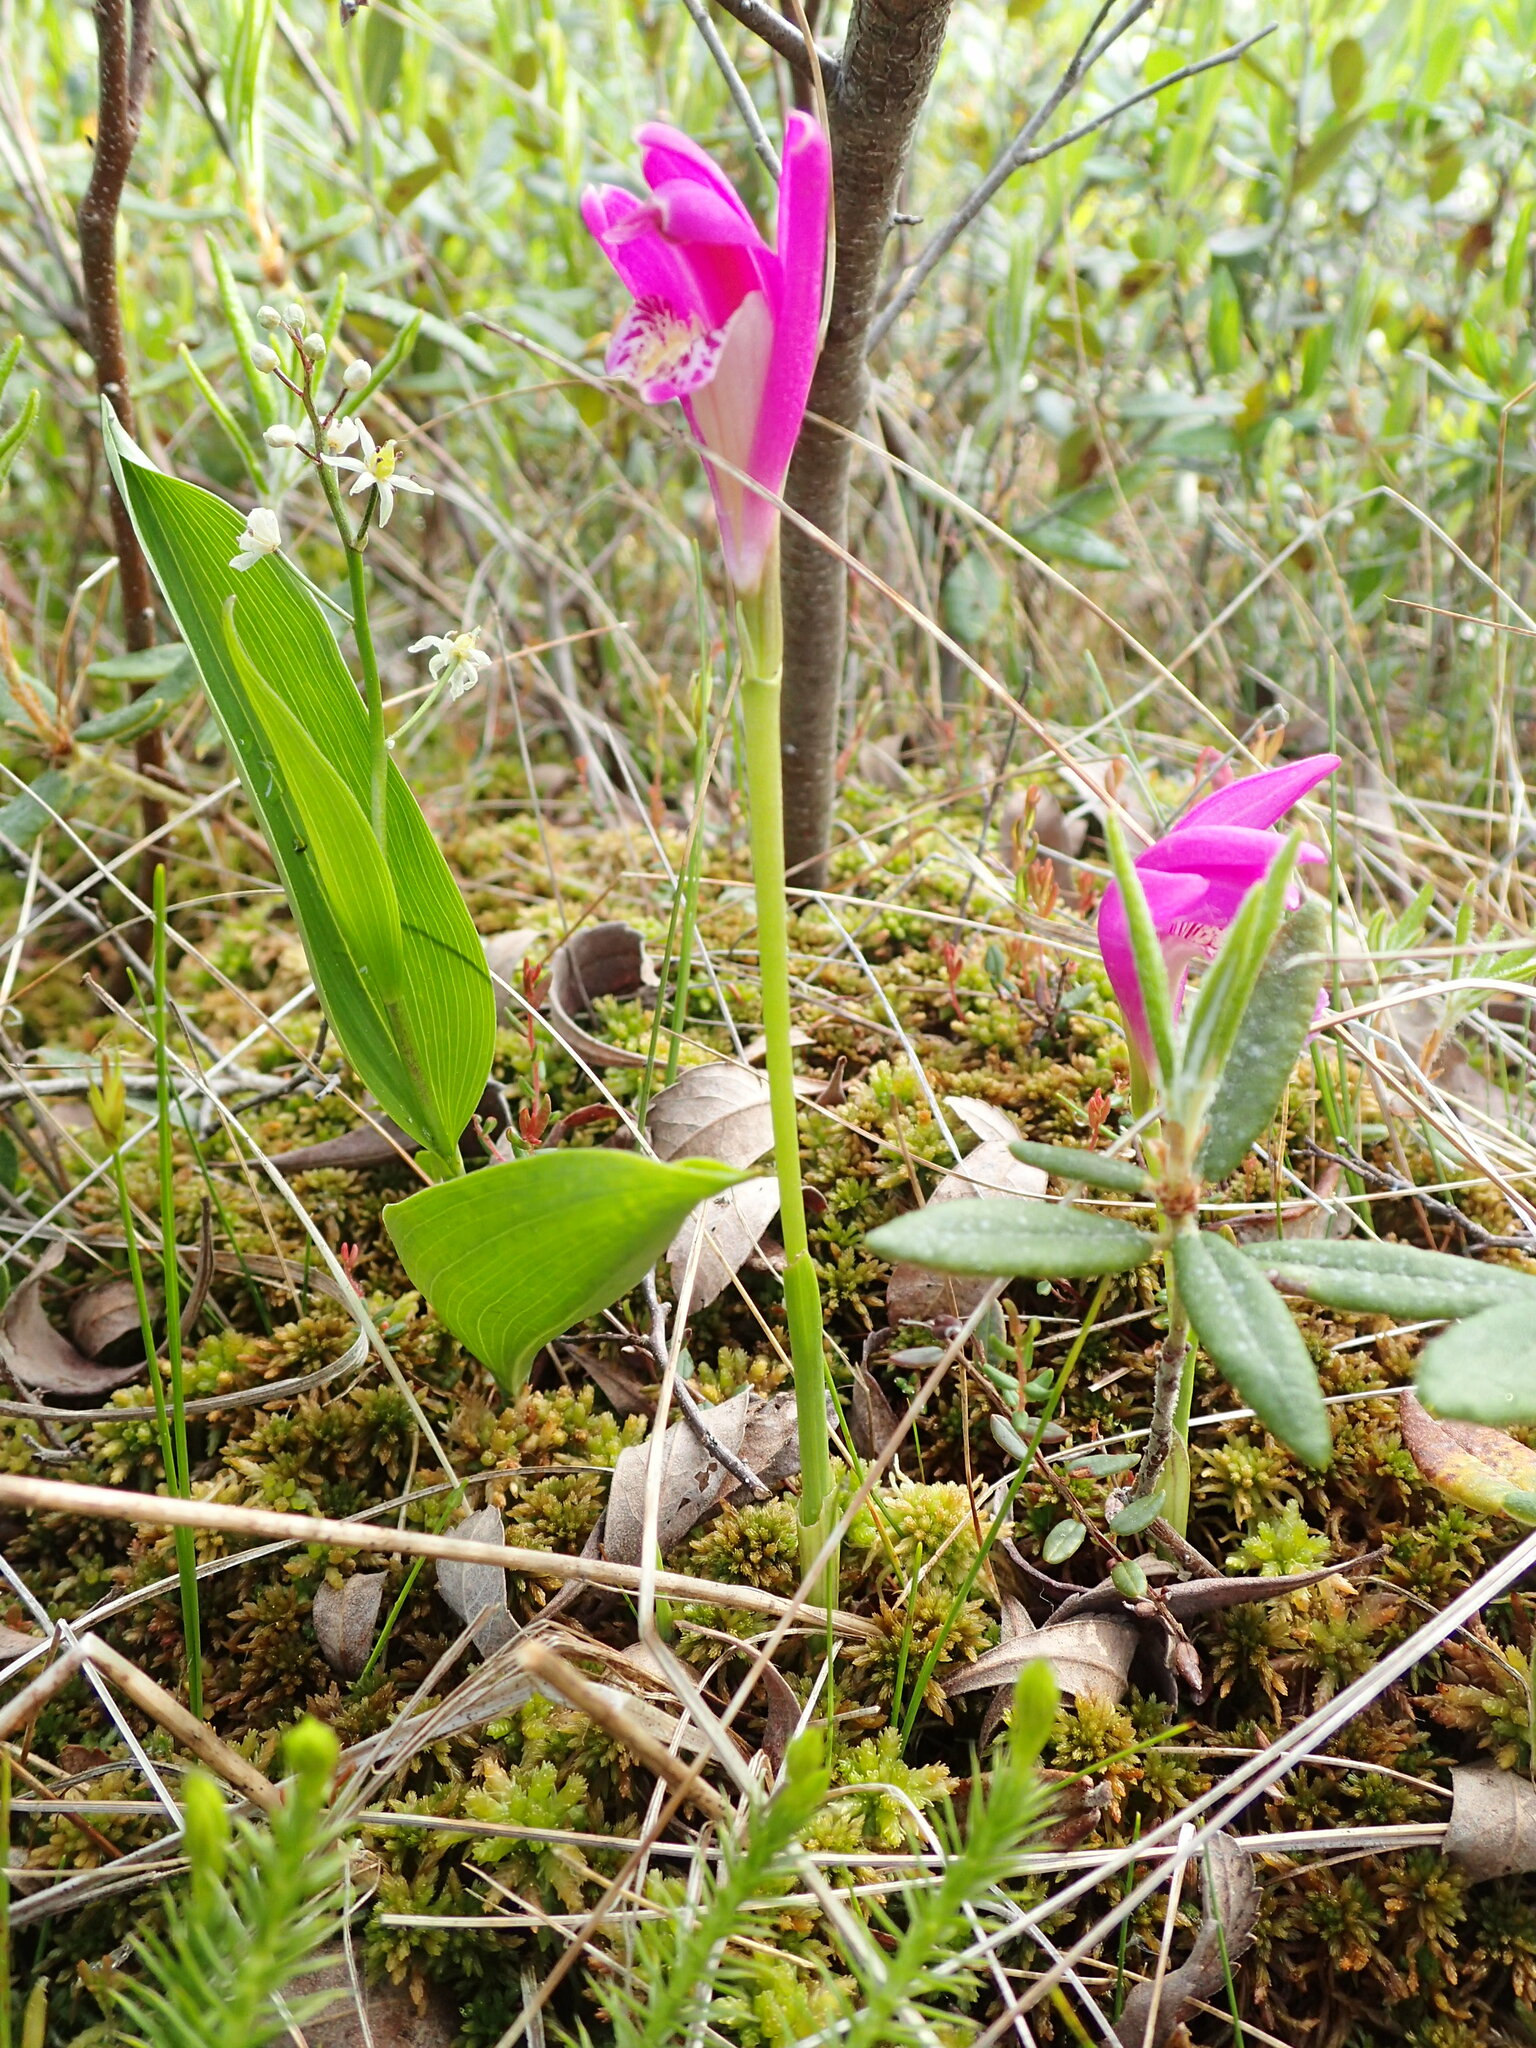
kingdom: Plantae
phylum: Tracheophyta
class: Liliopsida
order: Asparagales
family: Orchidaceae
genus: Arethusa
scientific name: Arethusa bulbosa
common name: Arethusa
